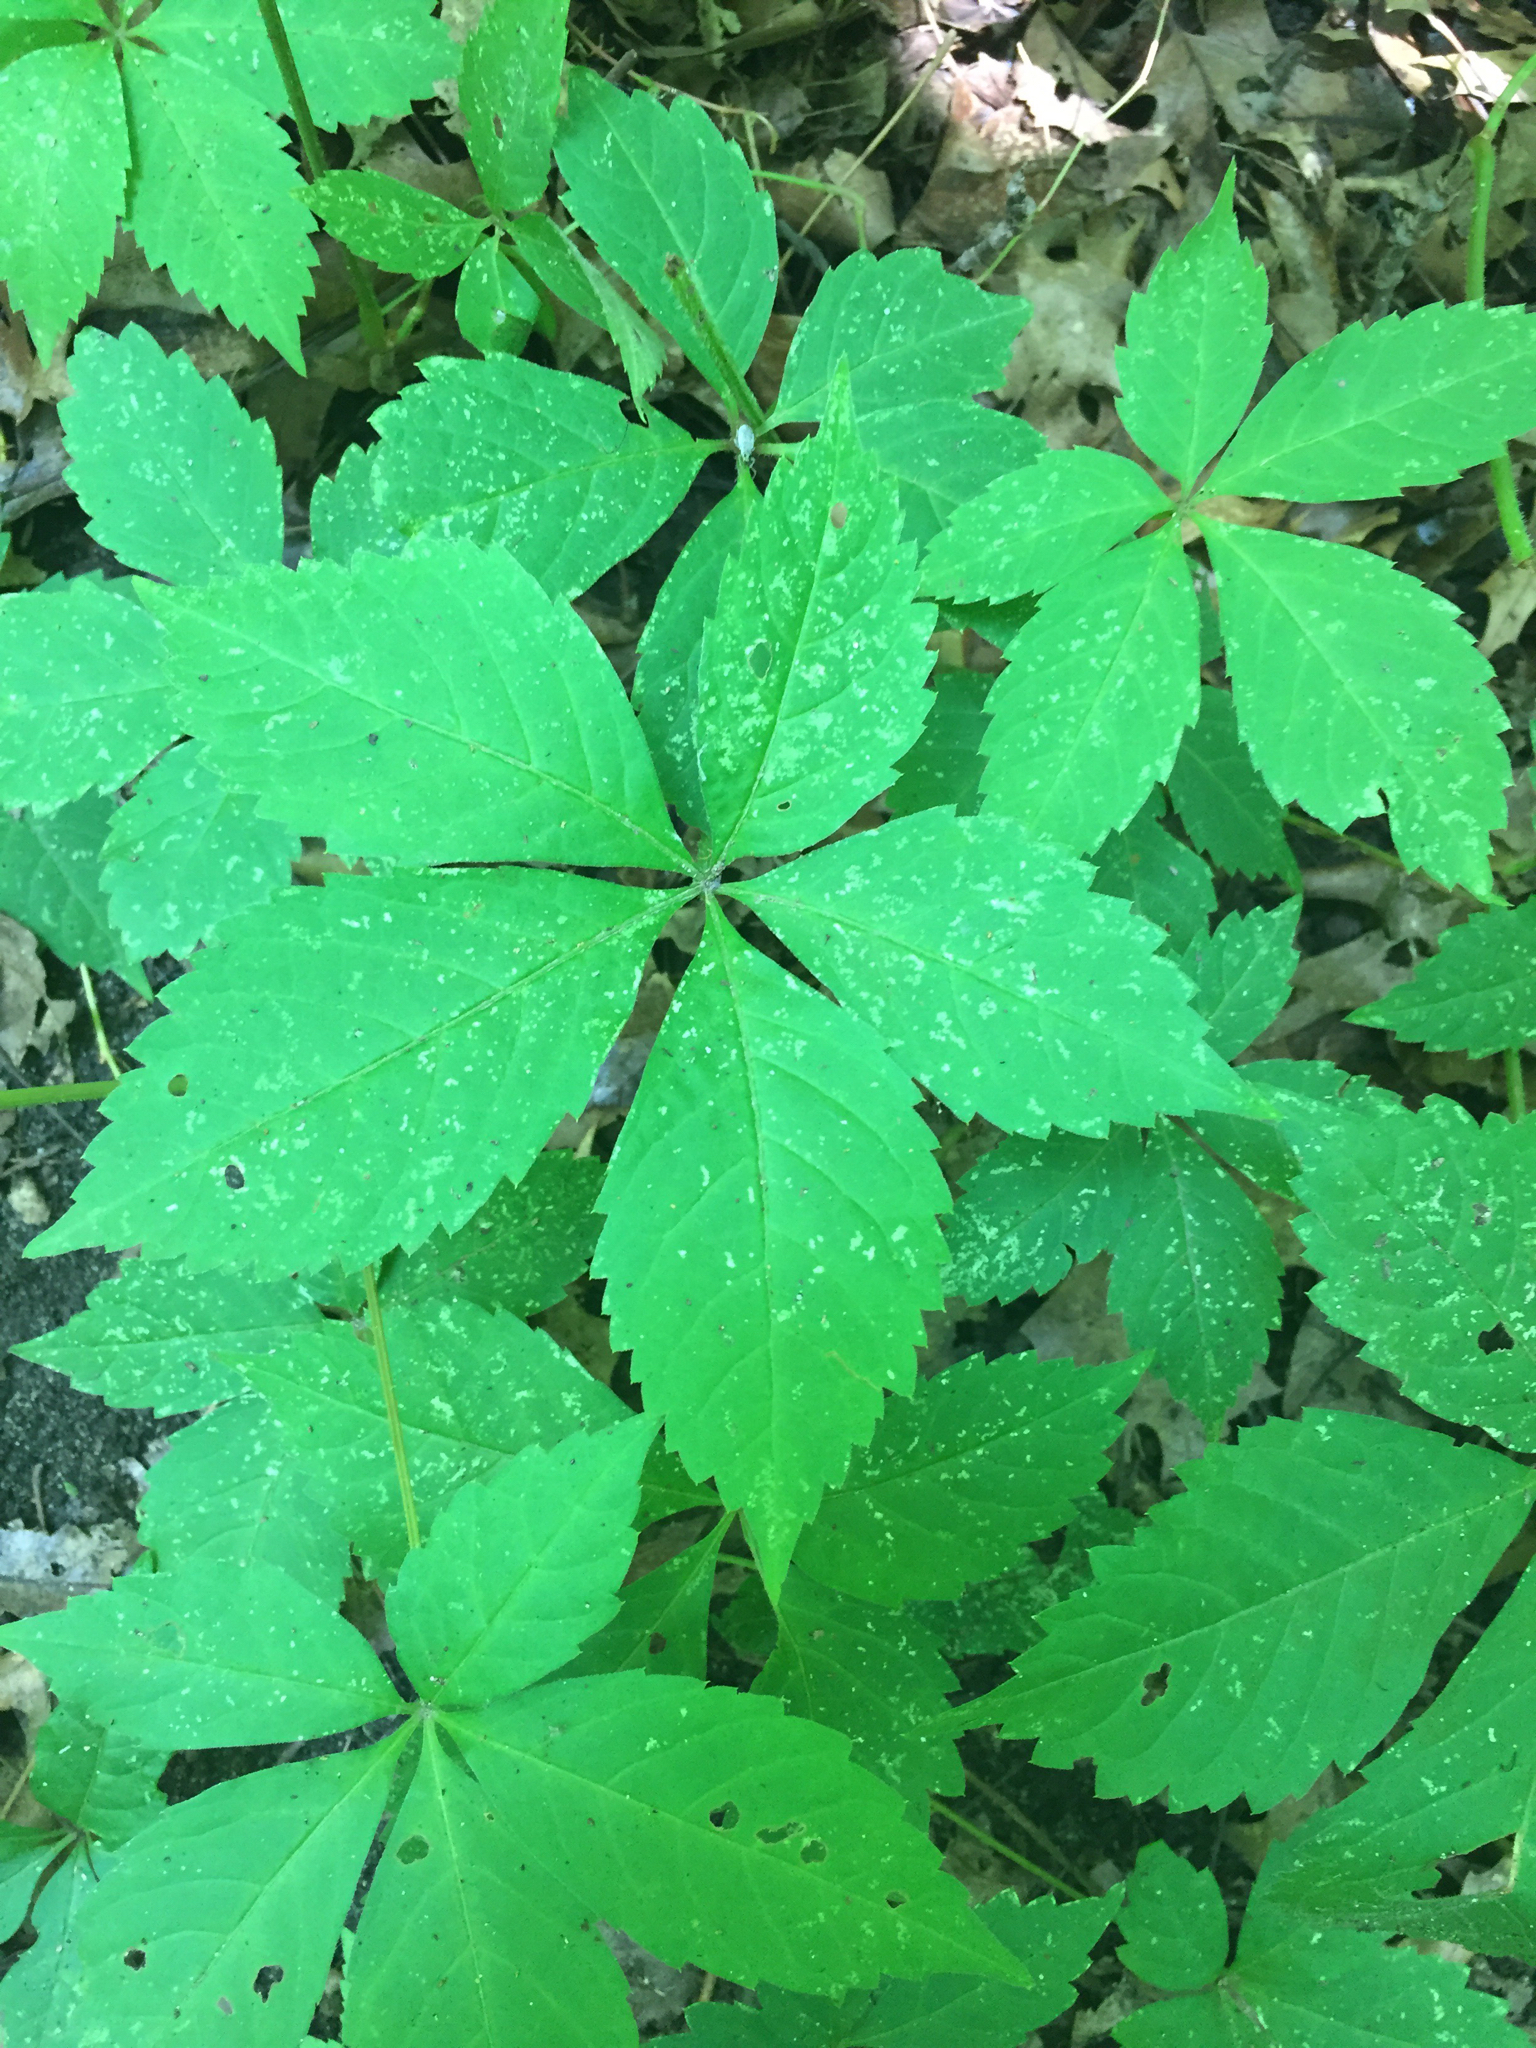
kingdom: Plantae
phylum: Tracheophyta
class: Magnoliopsida
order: Vitales
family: Vitaceae
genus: Parthenocissus
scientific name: Parthenocissus quinquefolia
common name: Virginia-creeper
